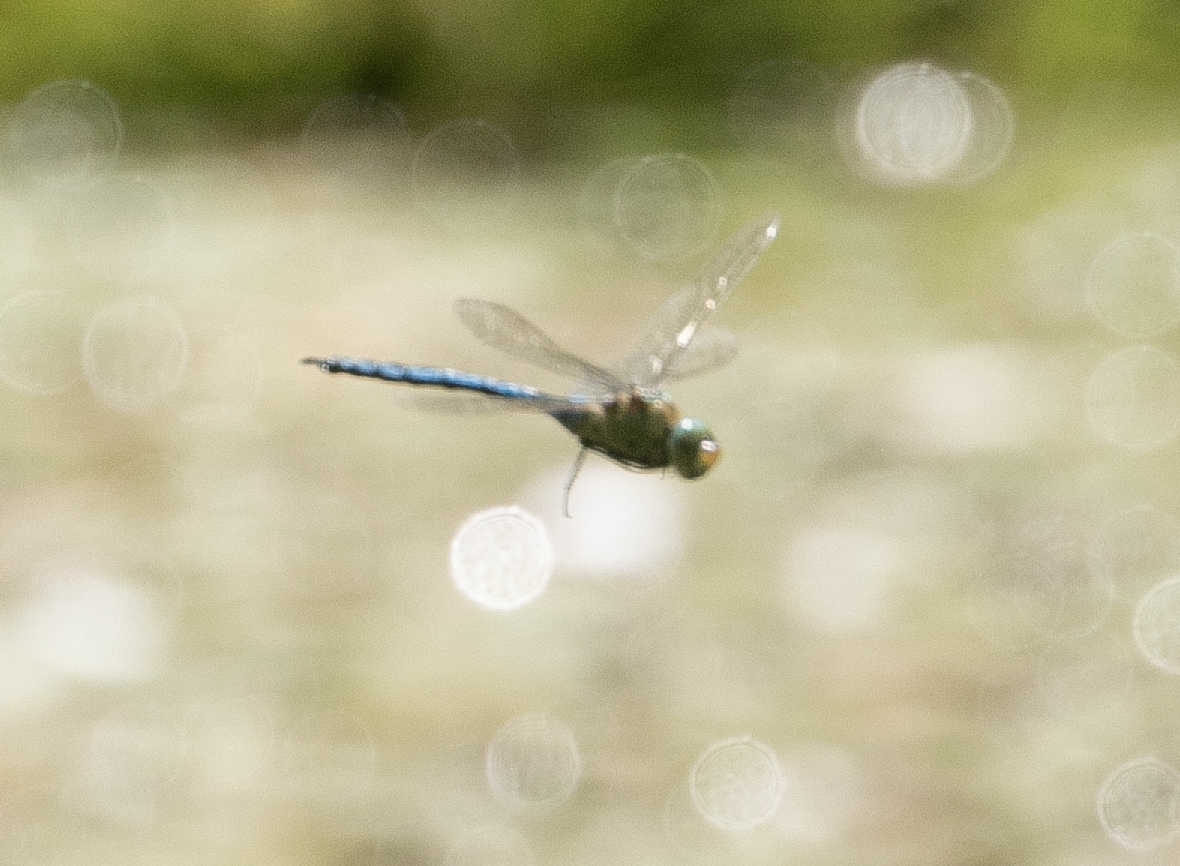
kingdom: Animalia
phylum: Arthropoda
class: Insecta
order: Odonata
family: Aeshnidae
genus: Anax
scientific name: Anax imperator
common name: Emperor dragonfly
